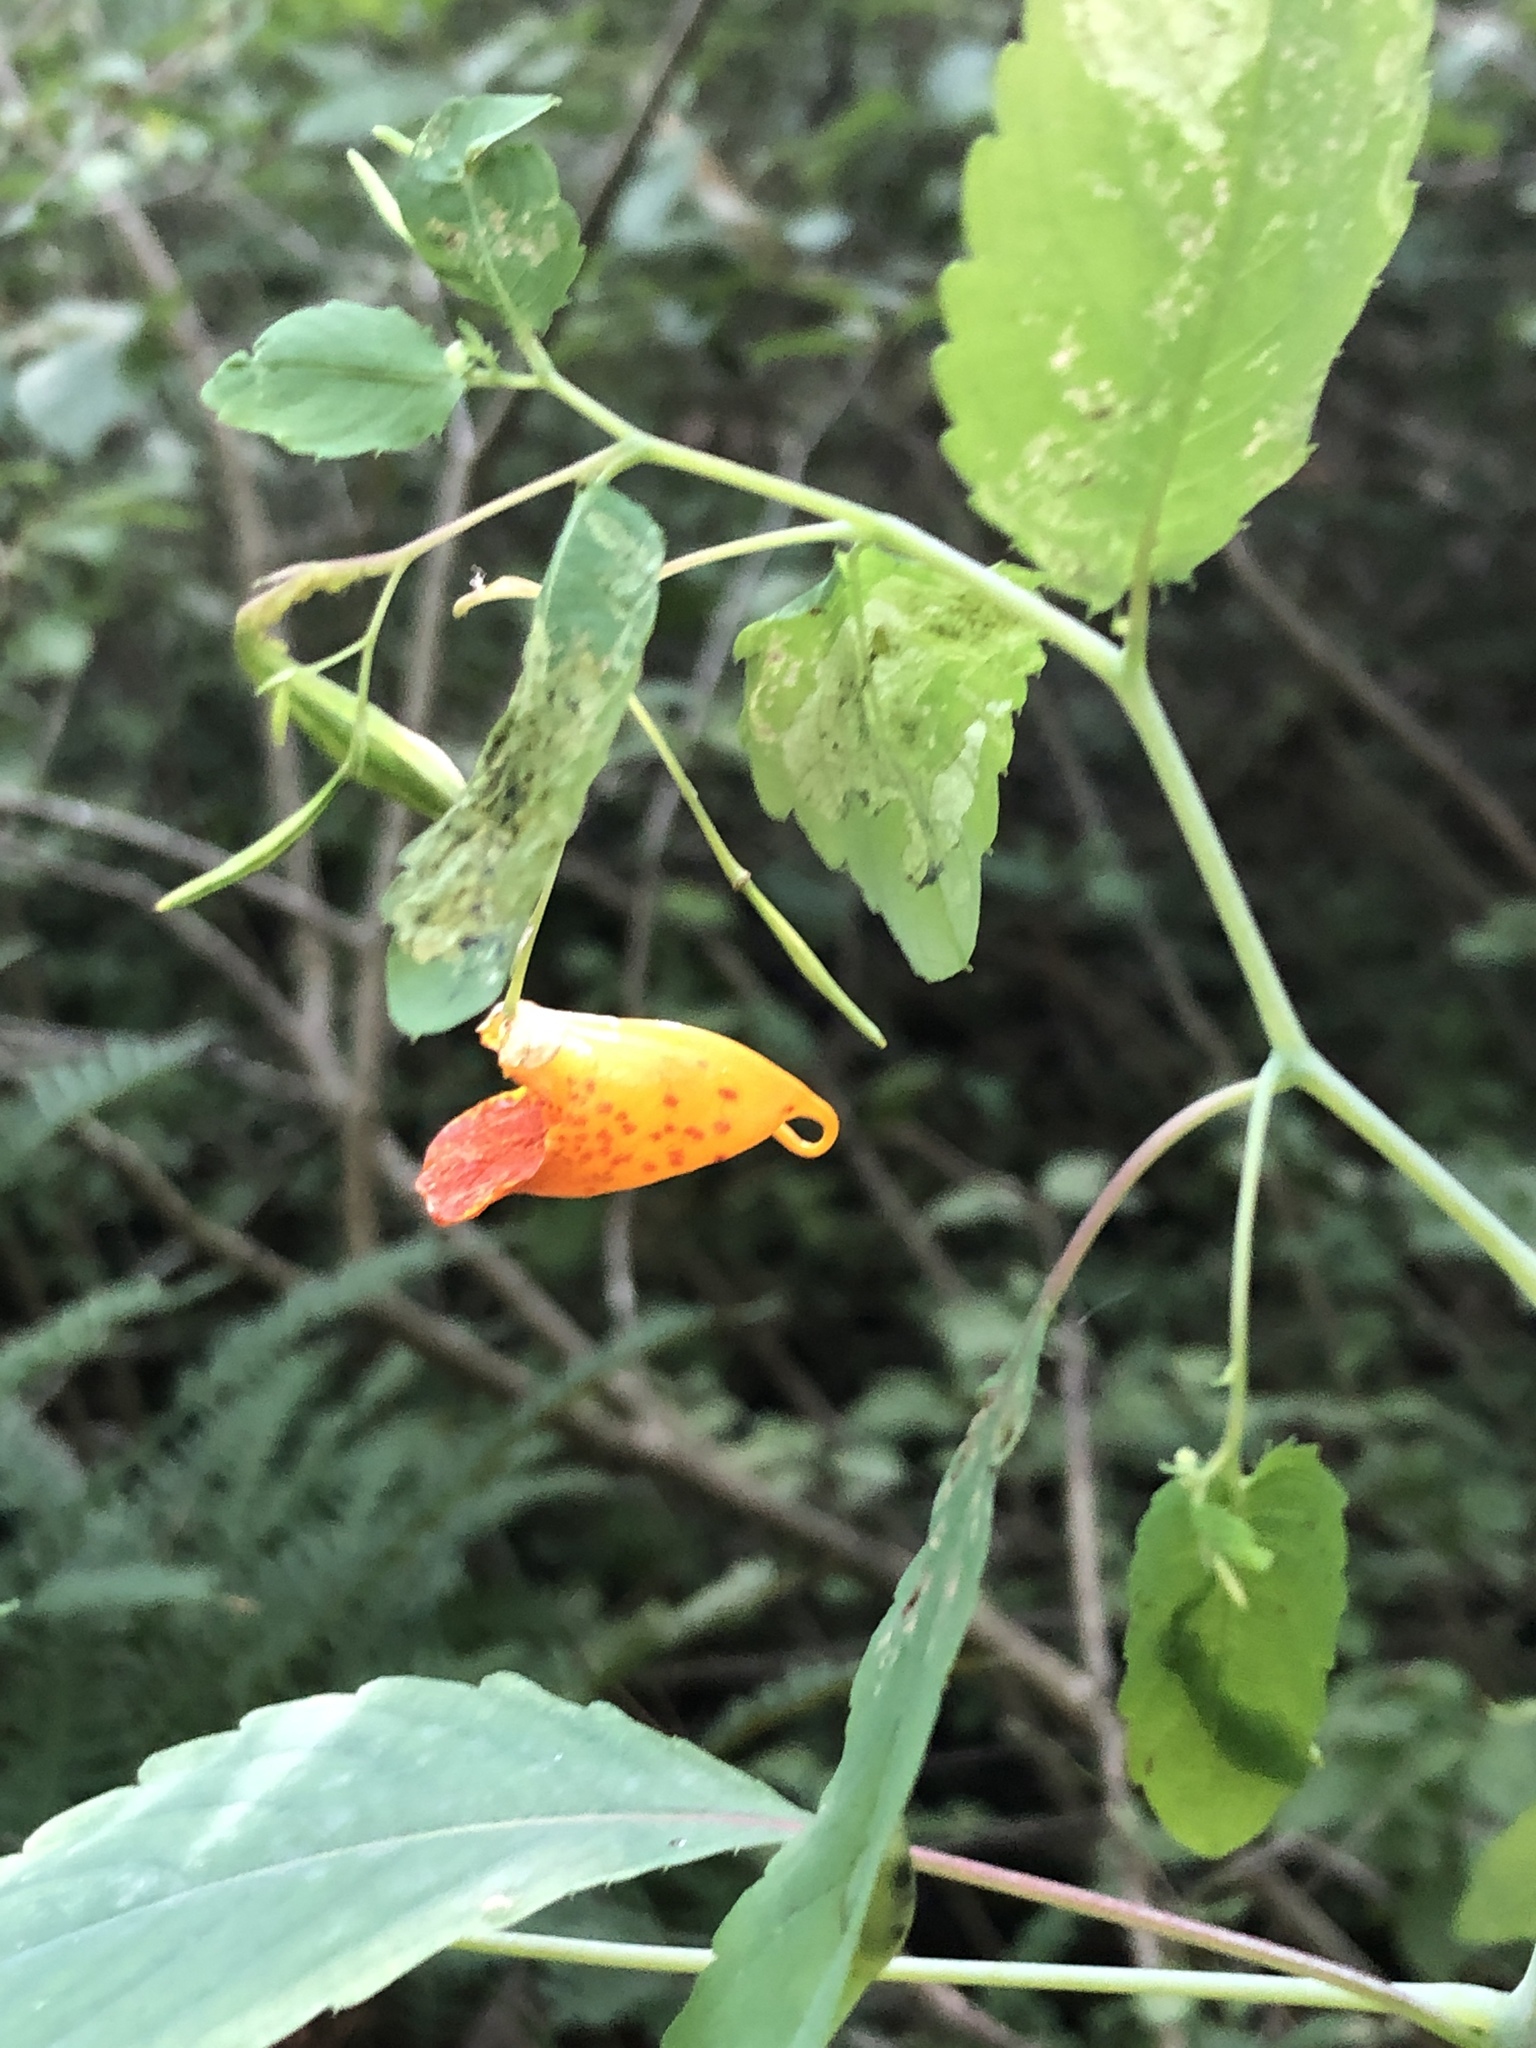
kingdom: Plantae
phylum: Tracheophyta
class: Magnoliopsida
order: Ericales
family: Balsaminaceae
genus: Impatiens
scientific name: Impatiens capensis
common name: Orange balsam
